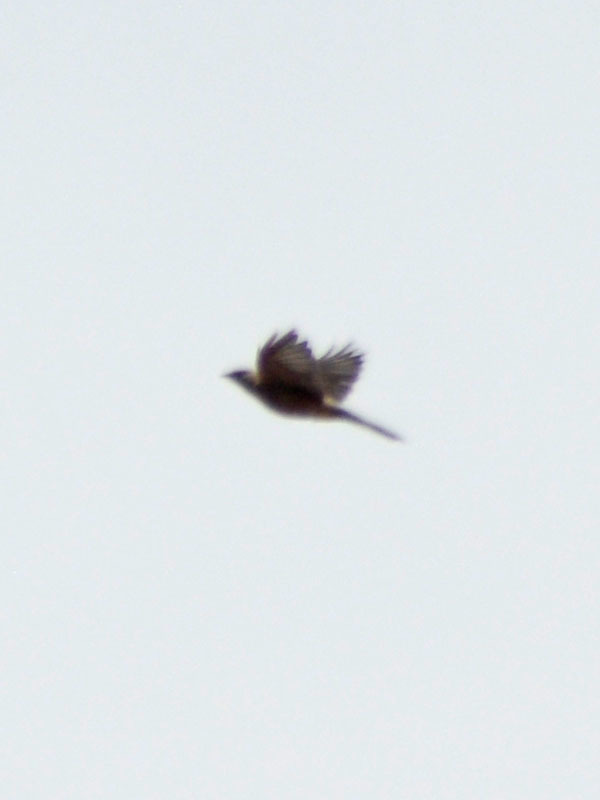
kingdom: Animalia
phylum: Chordata
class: Aves
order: Passeriformes
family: Ptilogonatidae
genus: Ptilogonys
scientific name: Ptilogonys cinereus
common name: Gray silky-flycatcher
